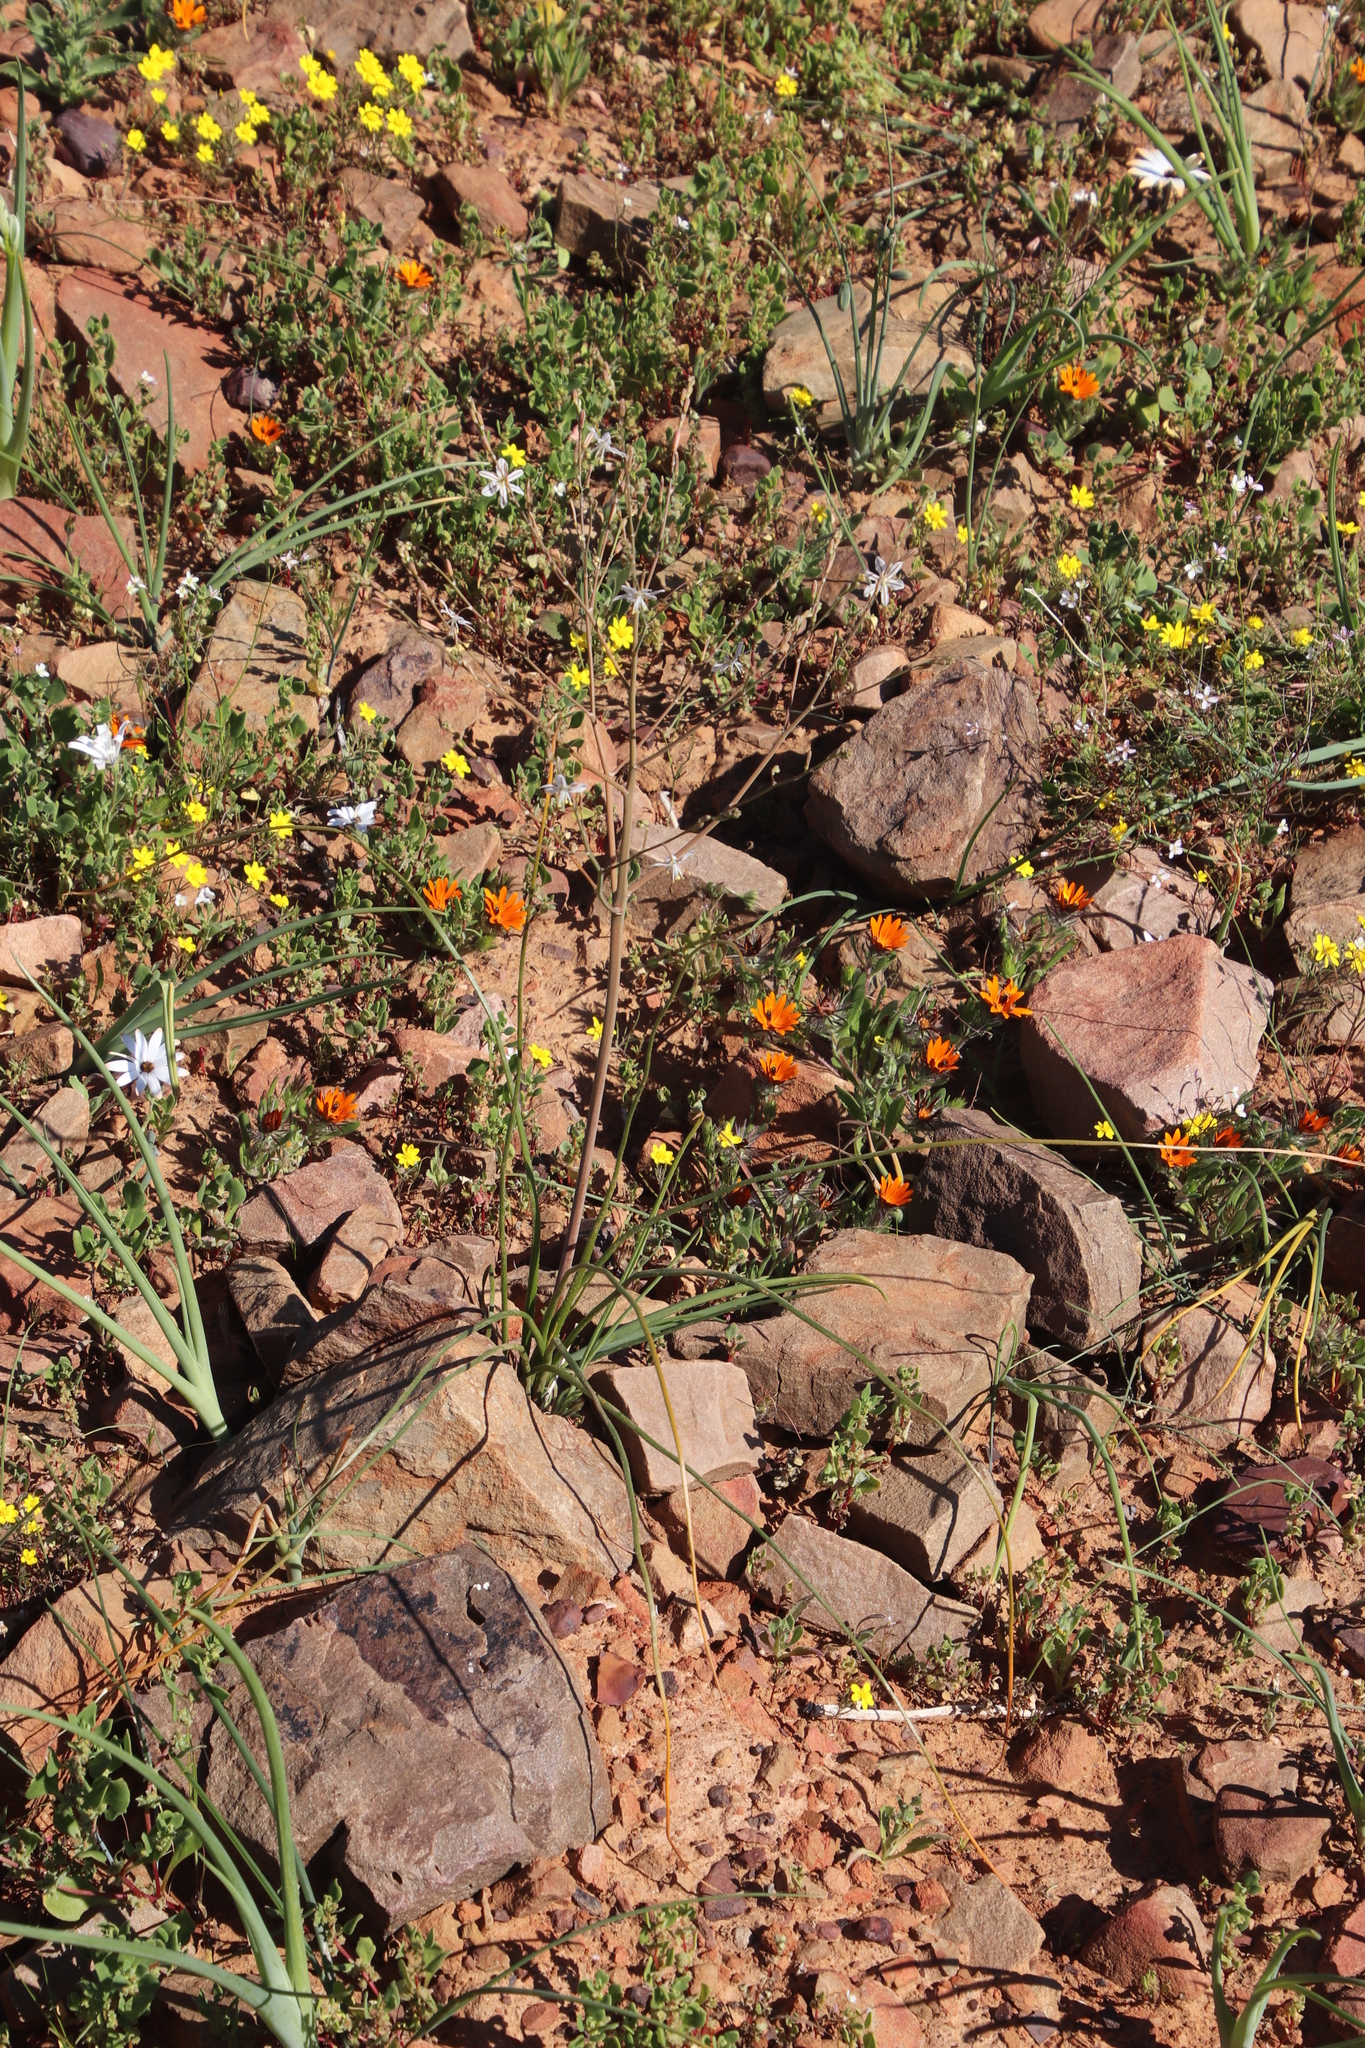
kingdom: Plantae
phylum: Tracheophyta
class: Magnoliopsida
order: Asterales
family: Asteraceae
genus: Gorteria
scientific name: Gorteria diffusa
